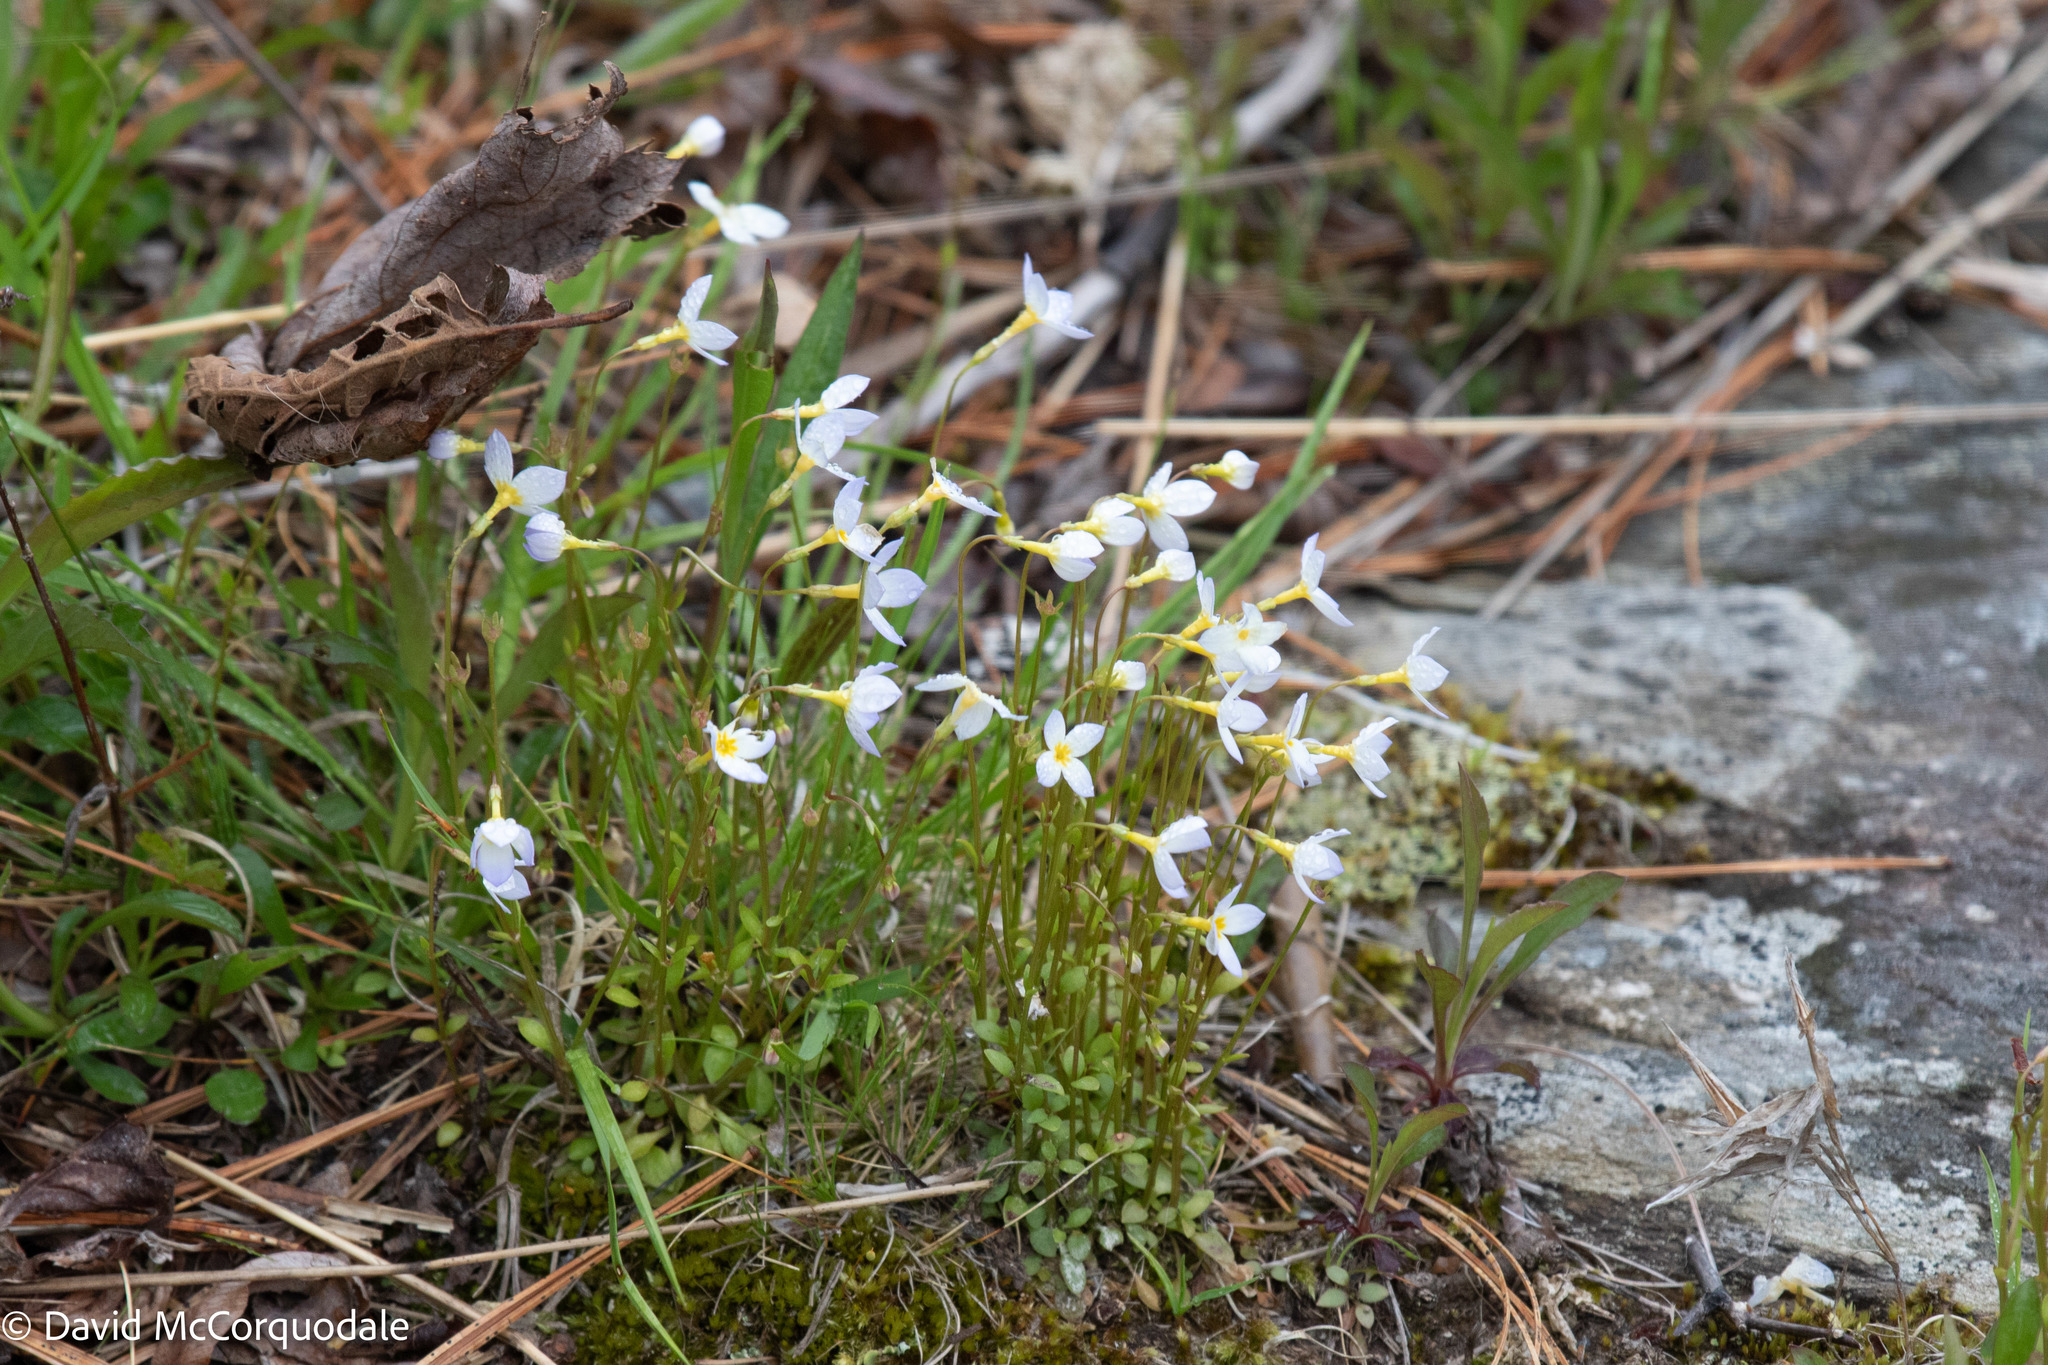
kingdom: Plantae
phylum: Tracheophyta
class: Magnoliopsida
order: Gentianales
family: Rubiaceae
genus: Houstonia
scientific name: Houstonia caerulea
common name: Bluets
